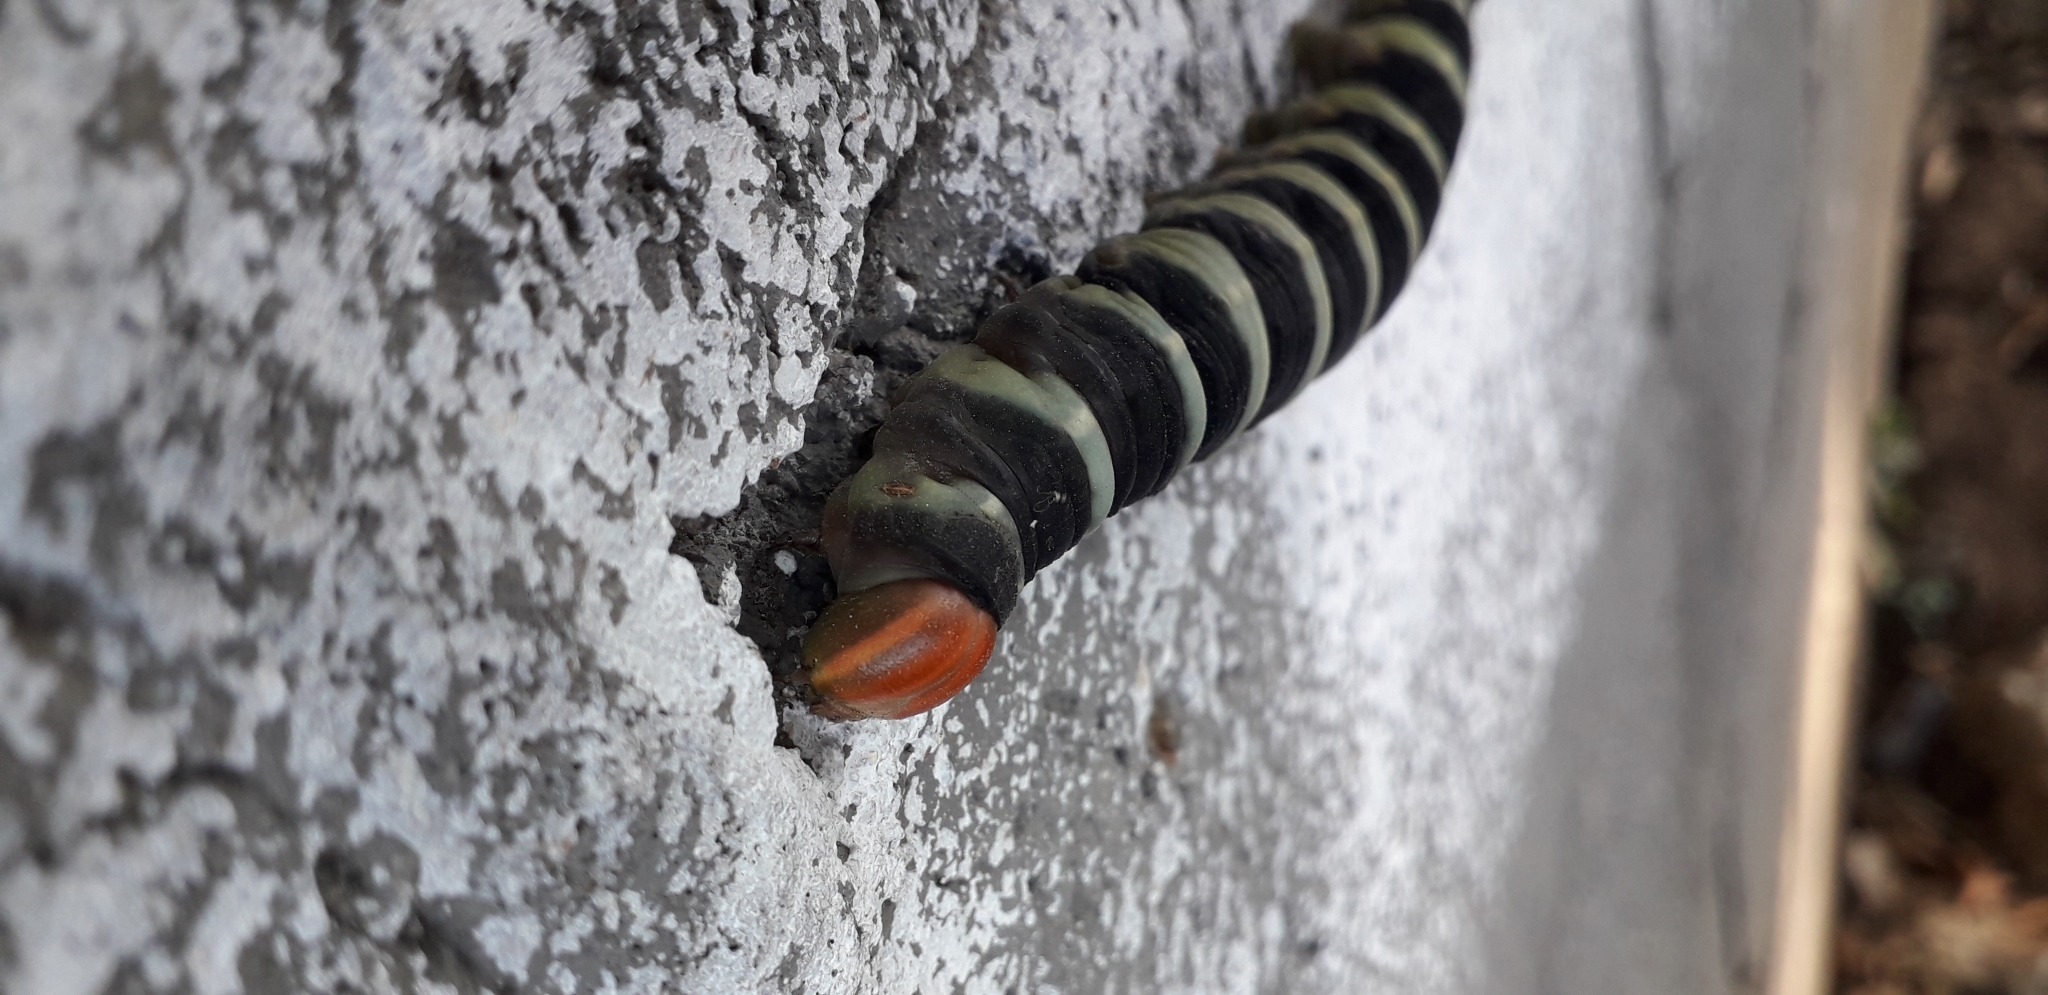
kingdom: Animalia
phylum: Arthropoda
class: Insecta
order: Lepidoptera
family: Sphingidae
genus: Pachylia
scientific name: Pachylia syces
